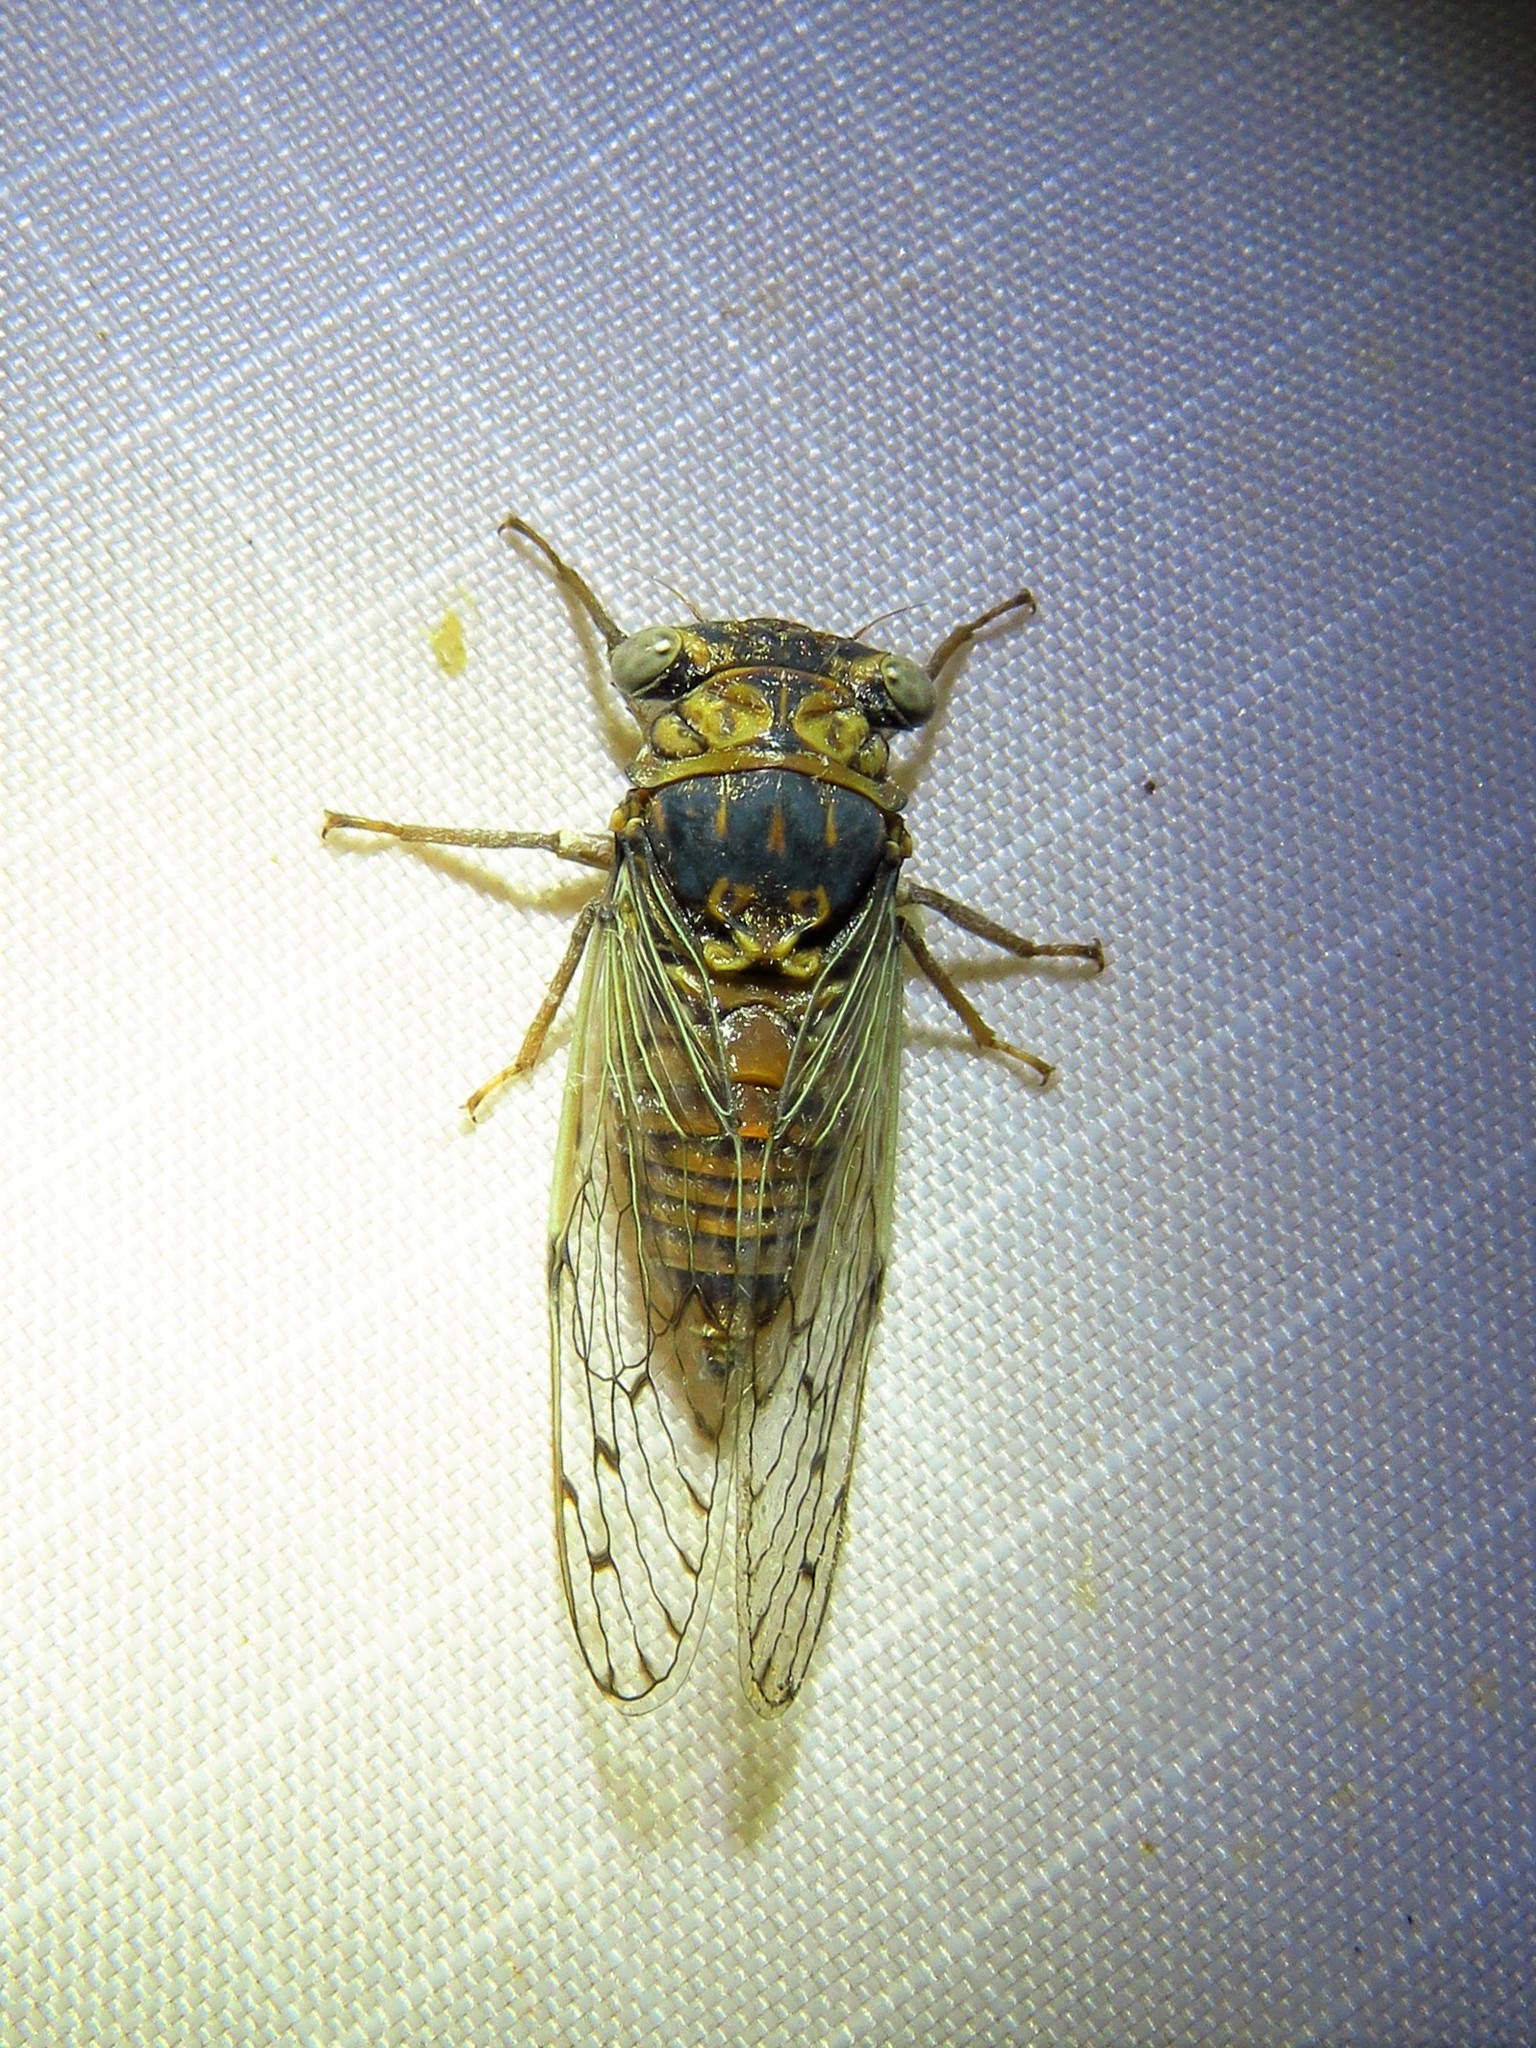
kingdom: Animalia
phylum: Arthropoda
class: Insecta
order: Hemiptera
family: Cicadidae
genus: Pacarina
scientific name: Pacarina puella
